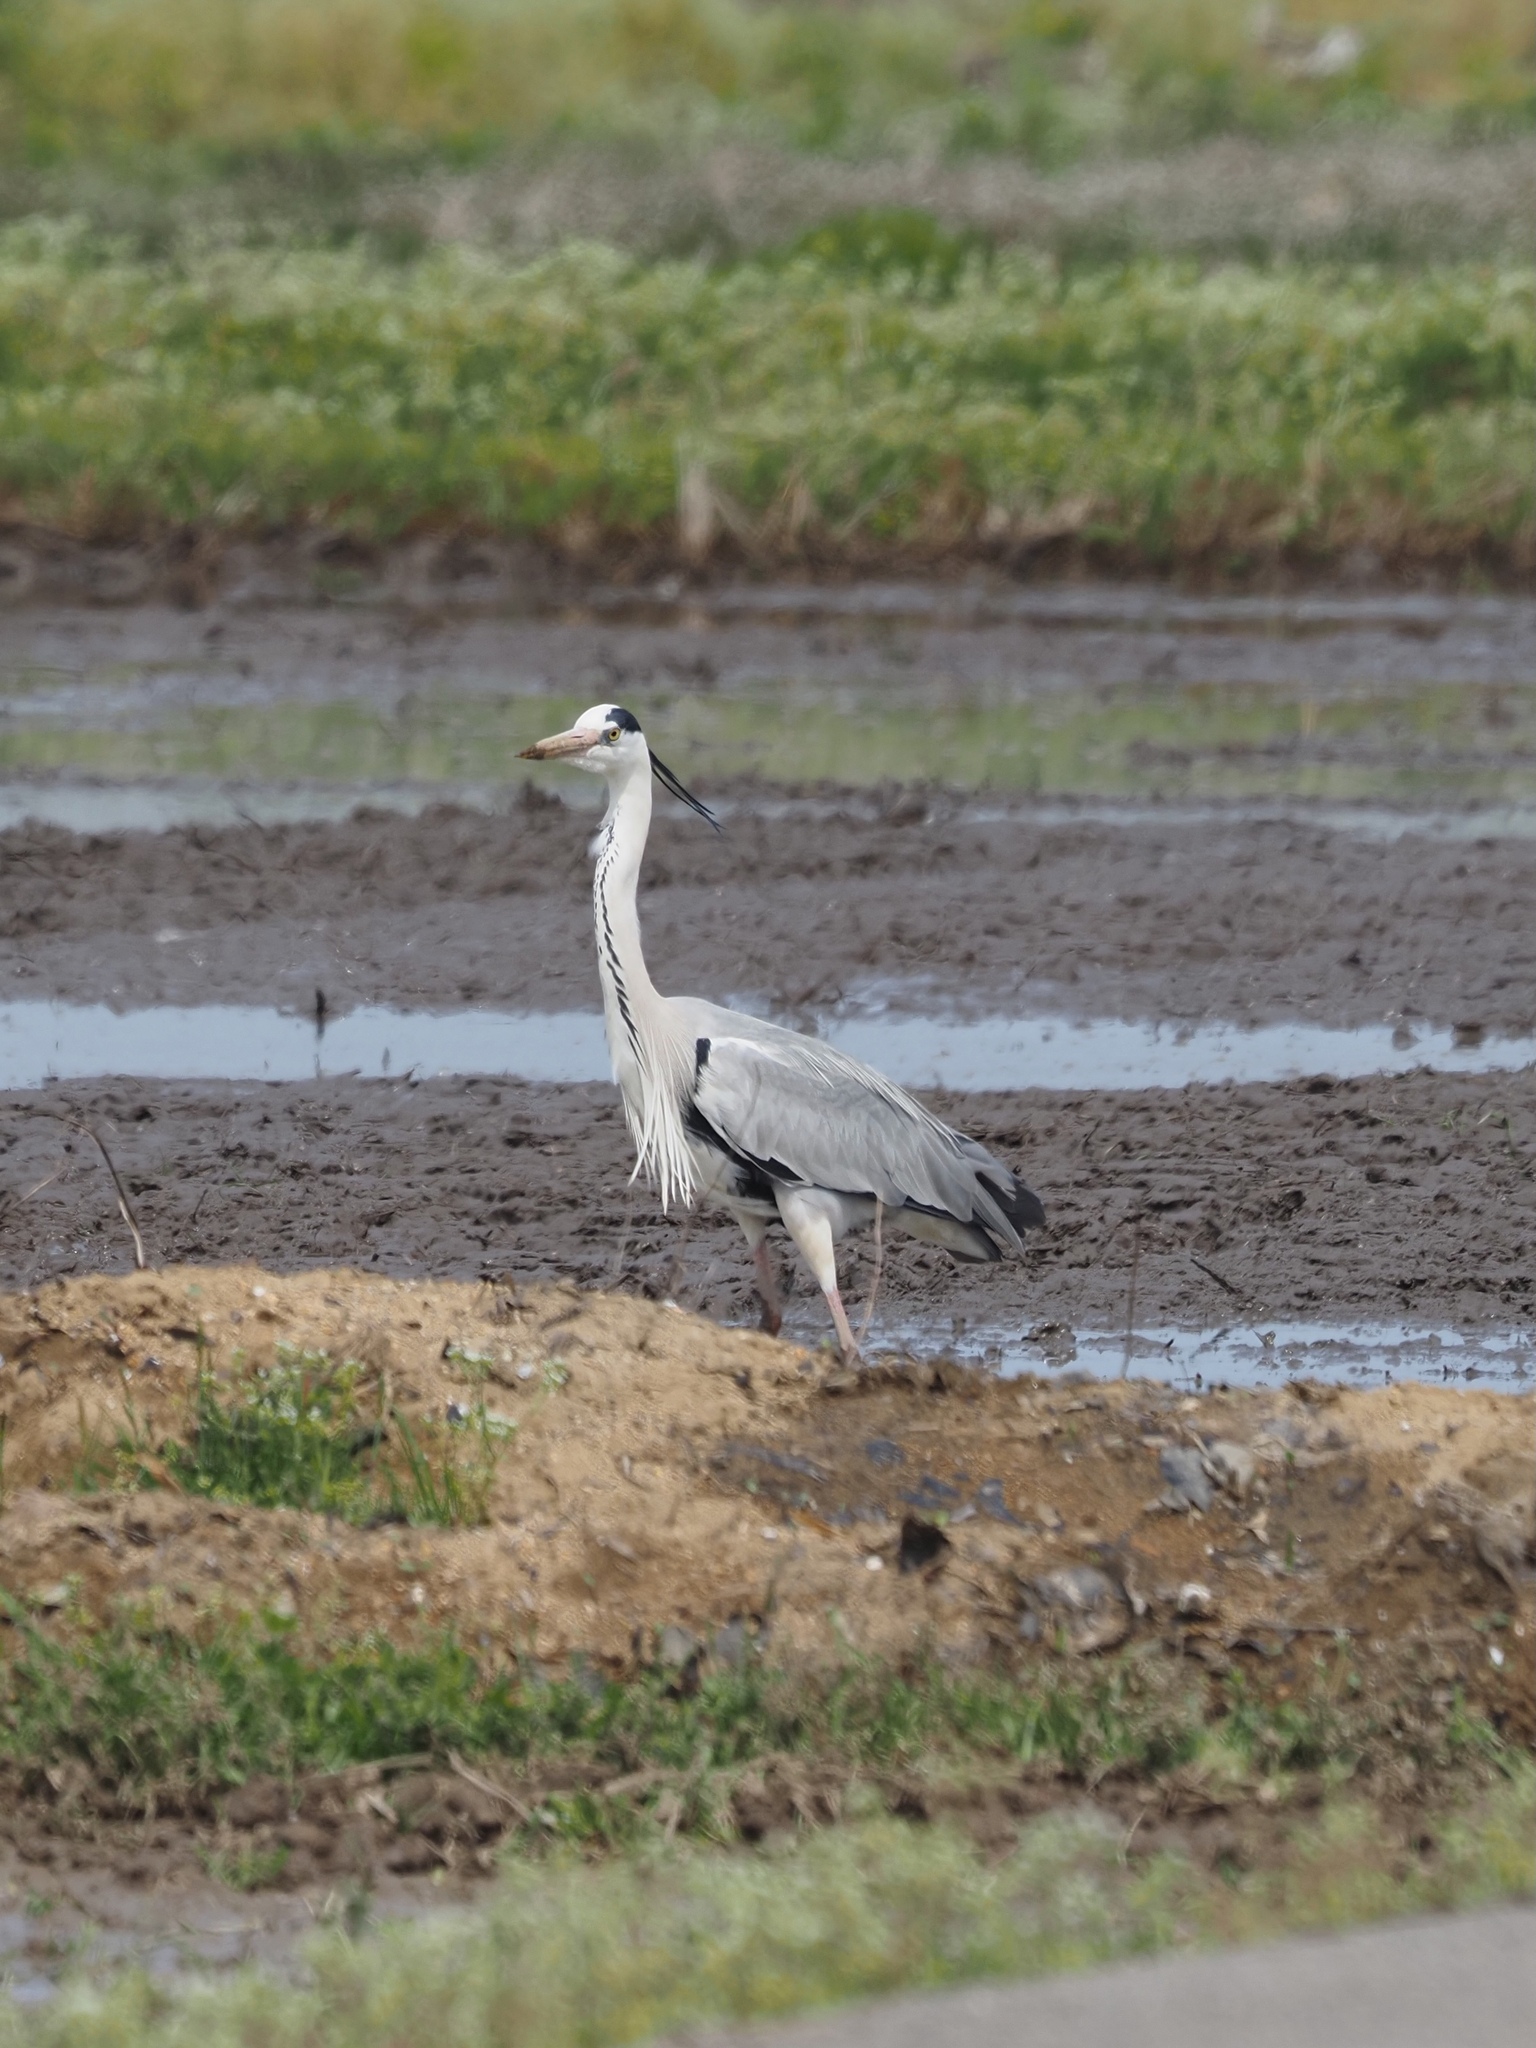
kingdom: Animalia
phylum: Chordata
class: Aves
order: Pelecaniformes
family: Ardeidae
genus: Ardea
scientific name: Ardea cinerea
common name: Grey heron
